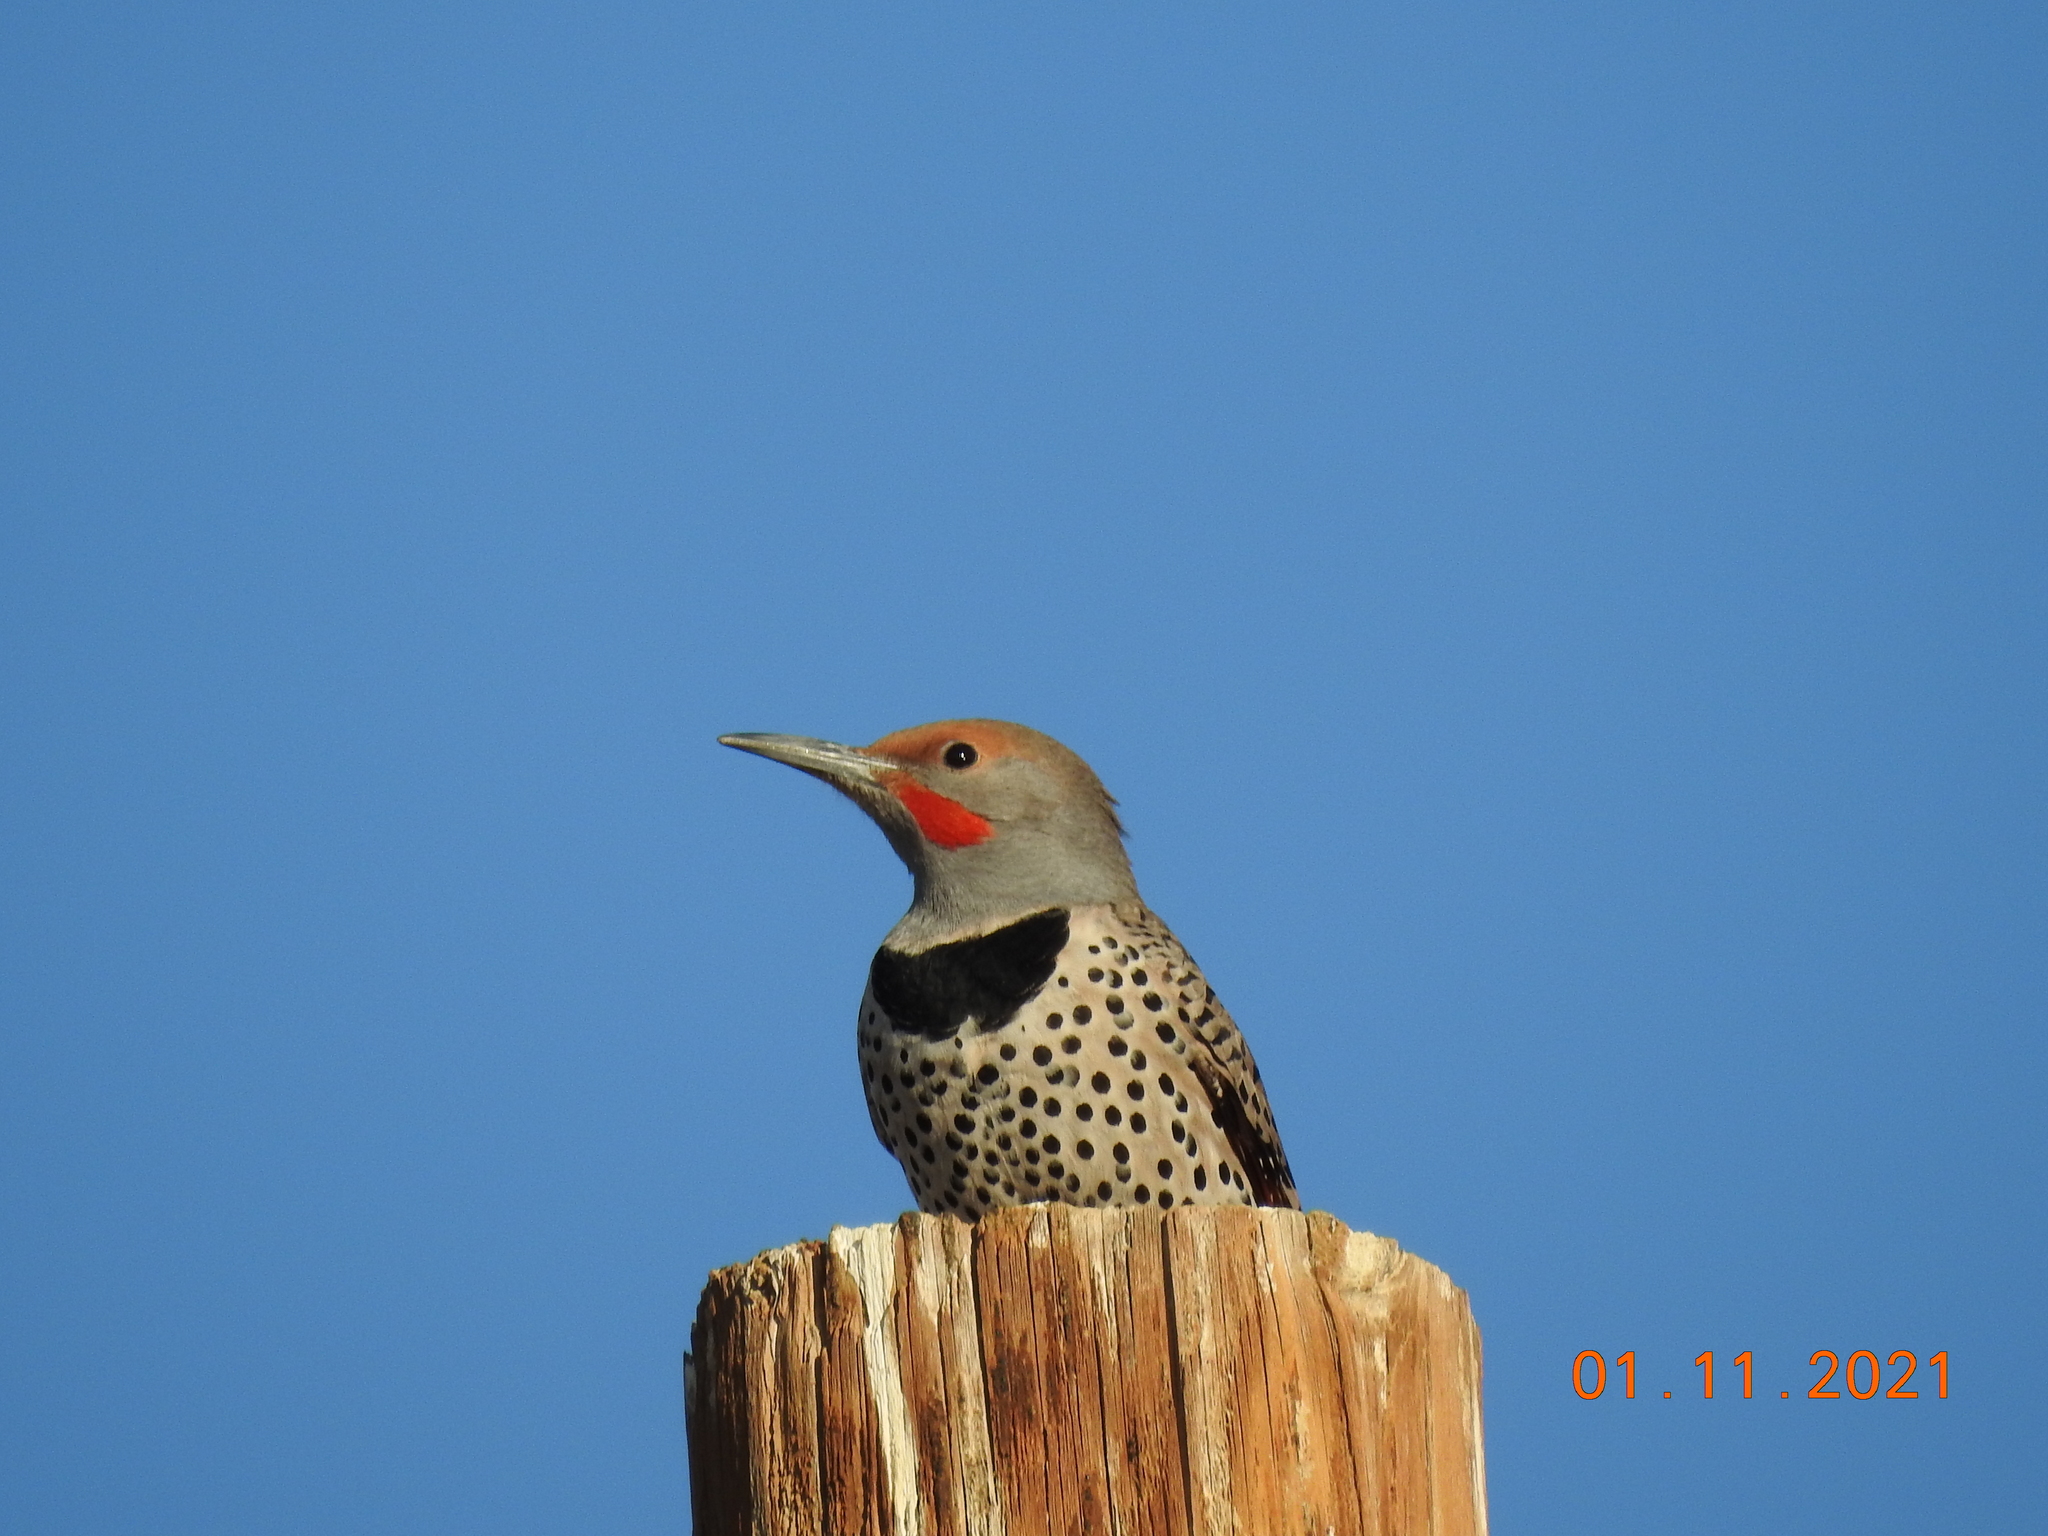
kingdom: Animalia
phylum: Chordata
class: Aves
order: Piciformes
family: Picidae
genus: Colaptes
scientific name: Colaptes auratus
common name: Northern flicker
